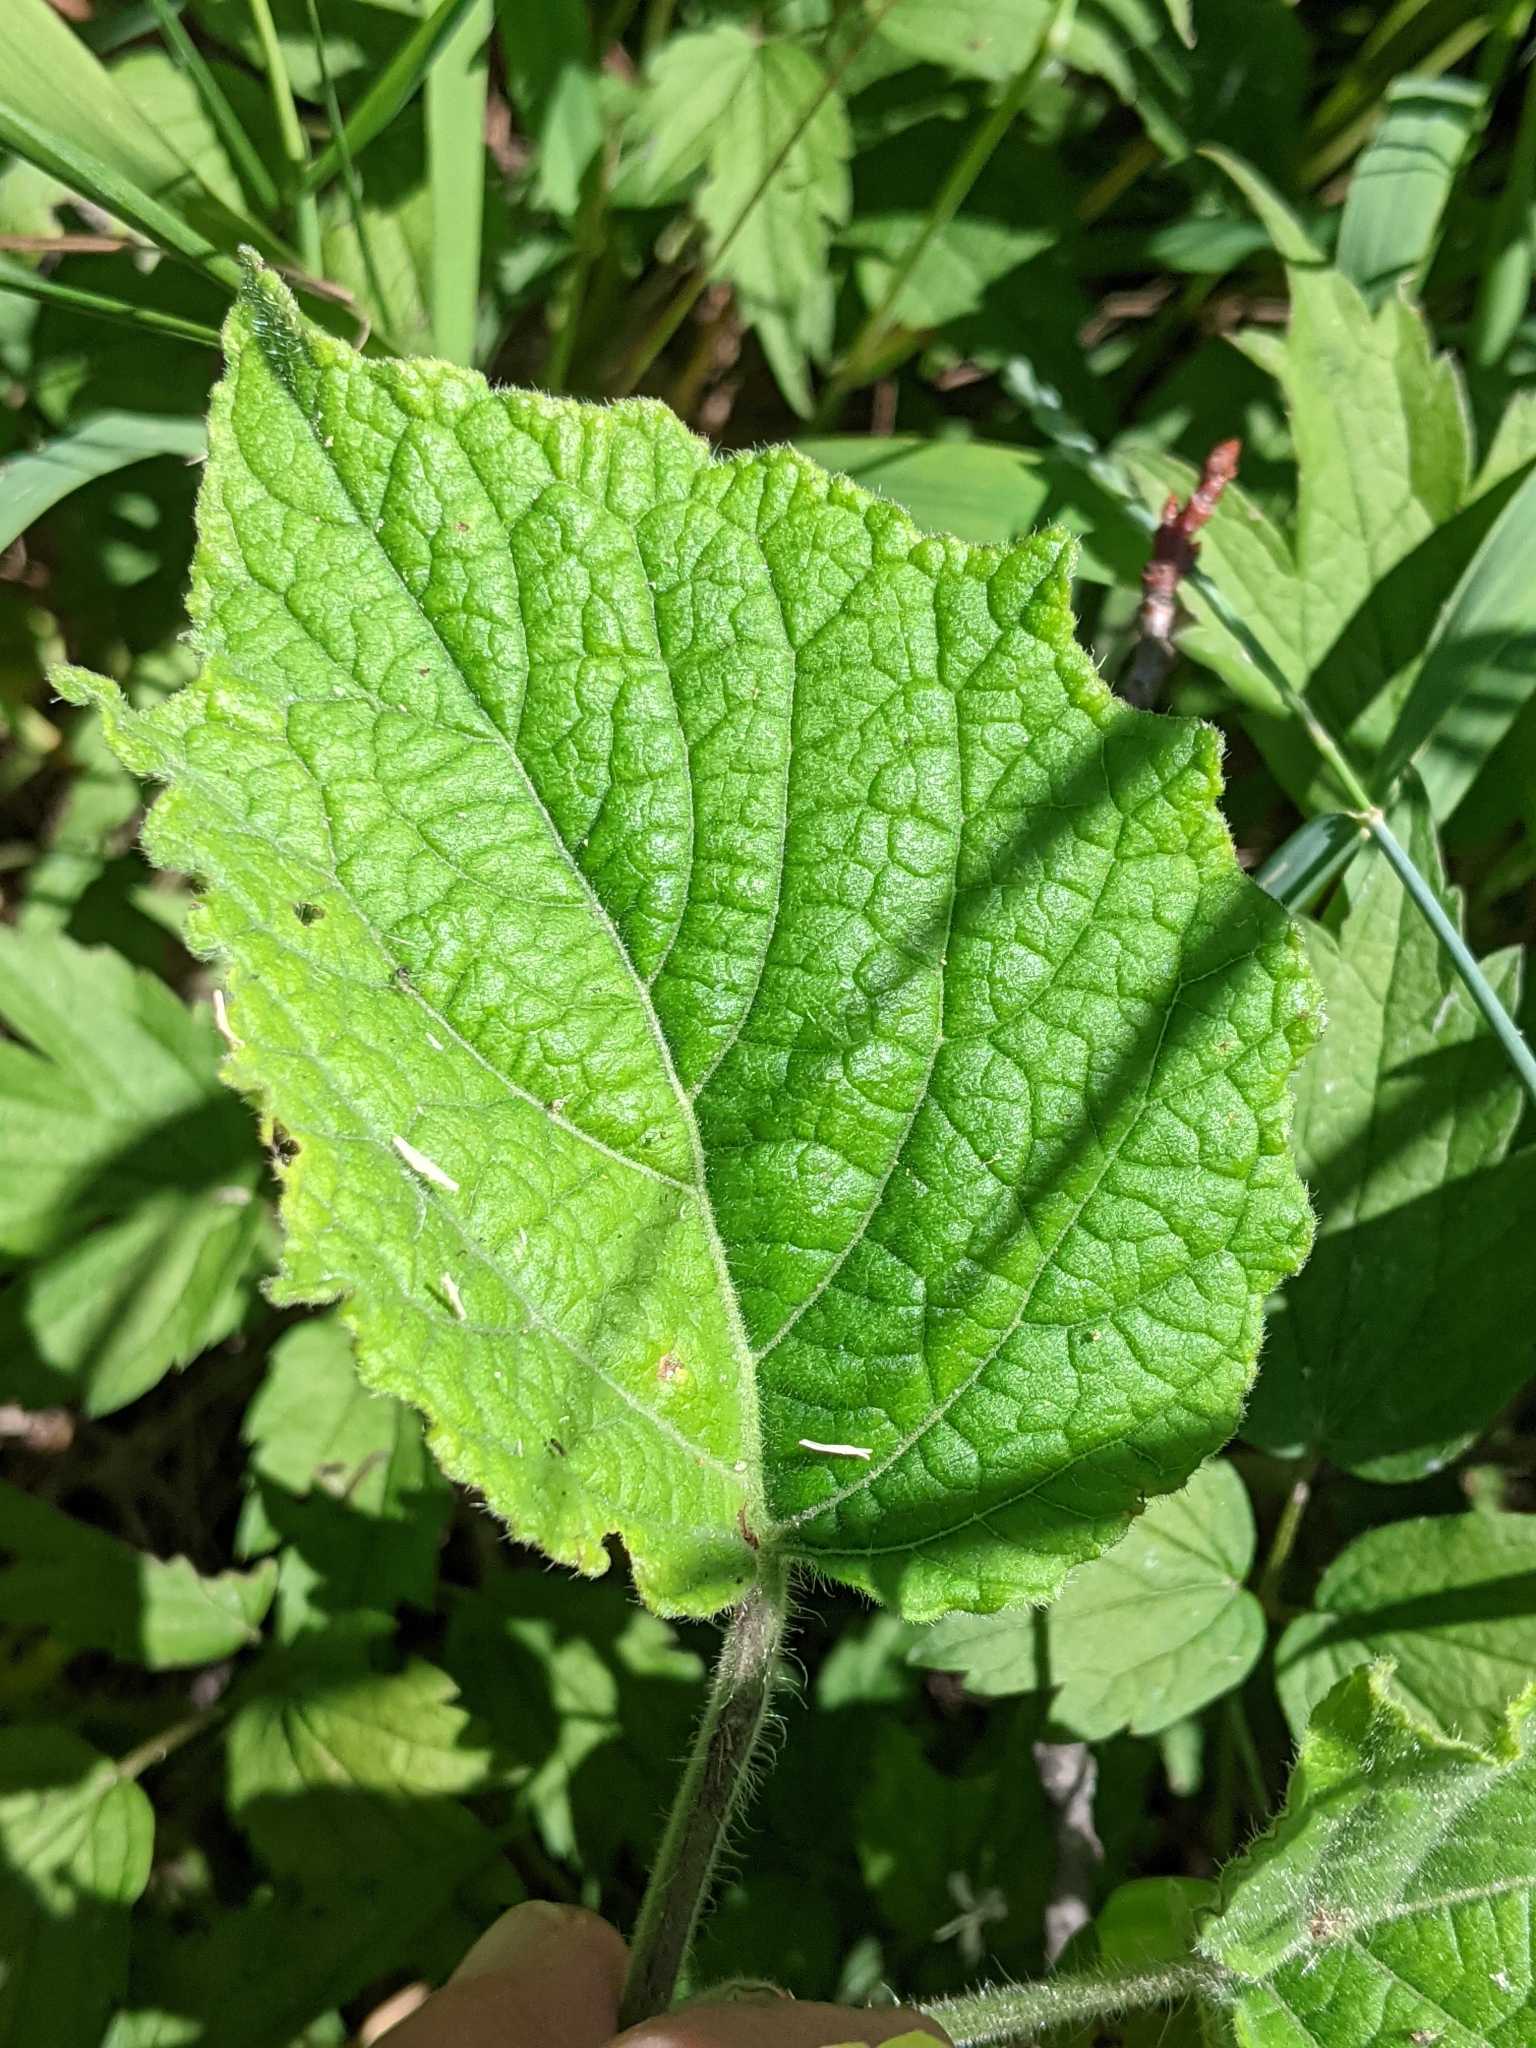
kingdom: Plantae
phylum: Tracheophyta
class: Magnoliopsida
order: Solanales
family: Solanaceae
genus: Physalis
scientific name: Physalis heterophylla
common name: Clammy ground-cherry
